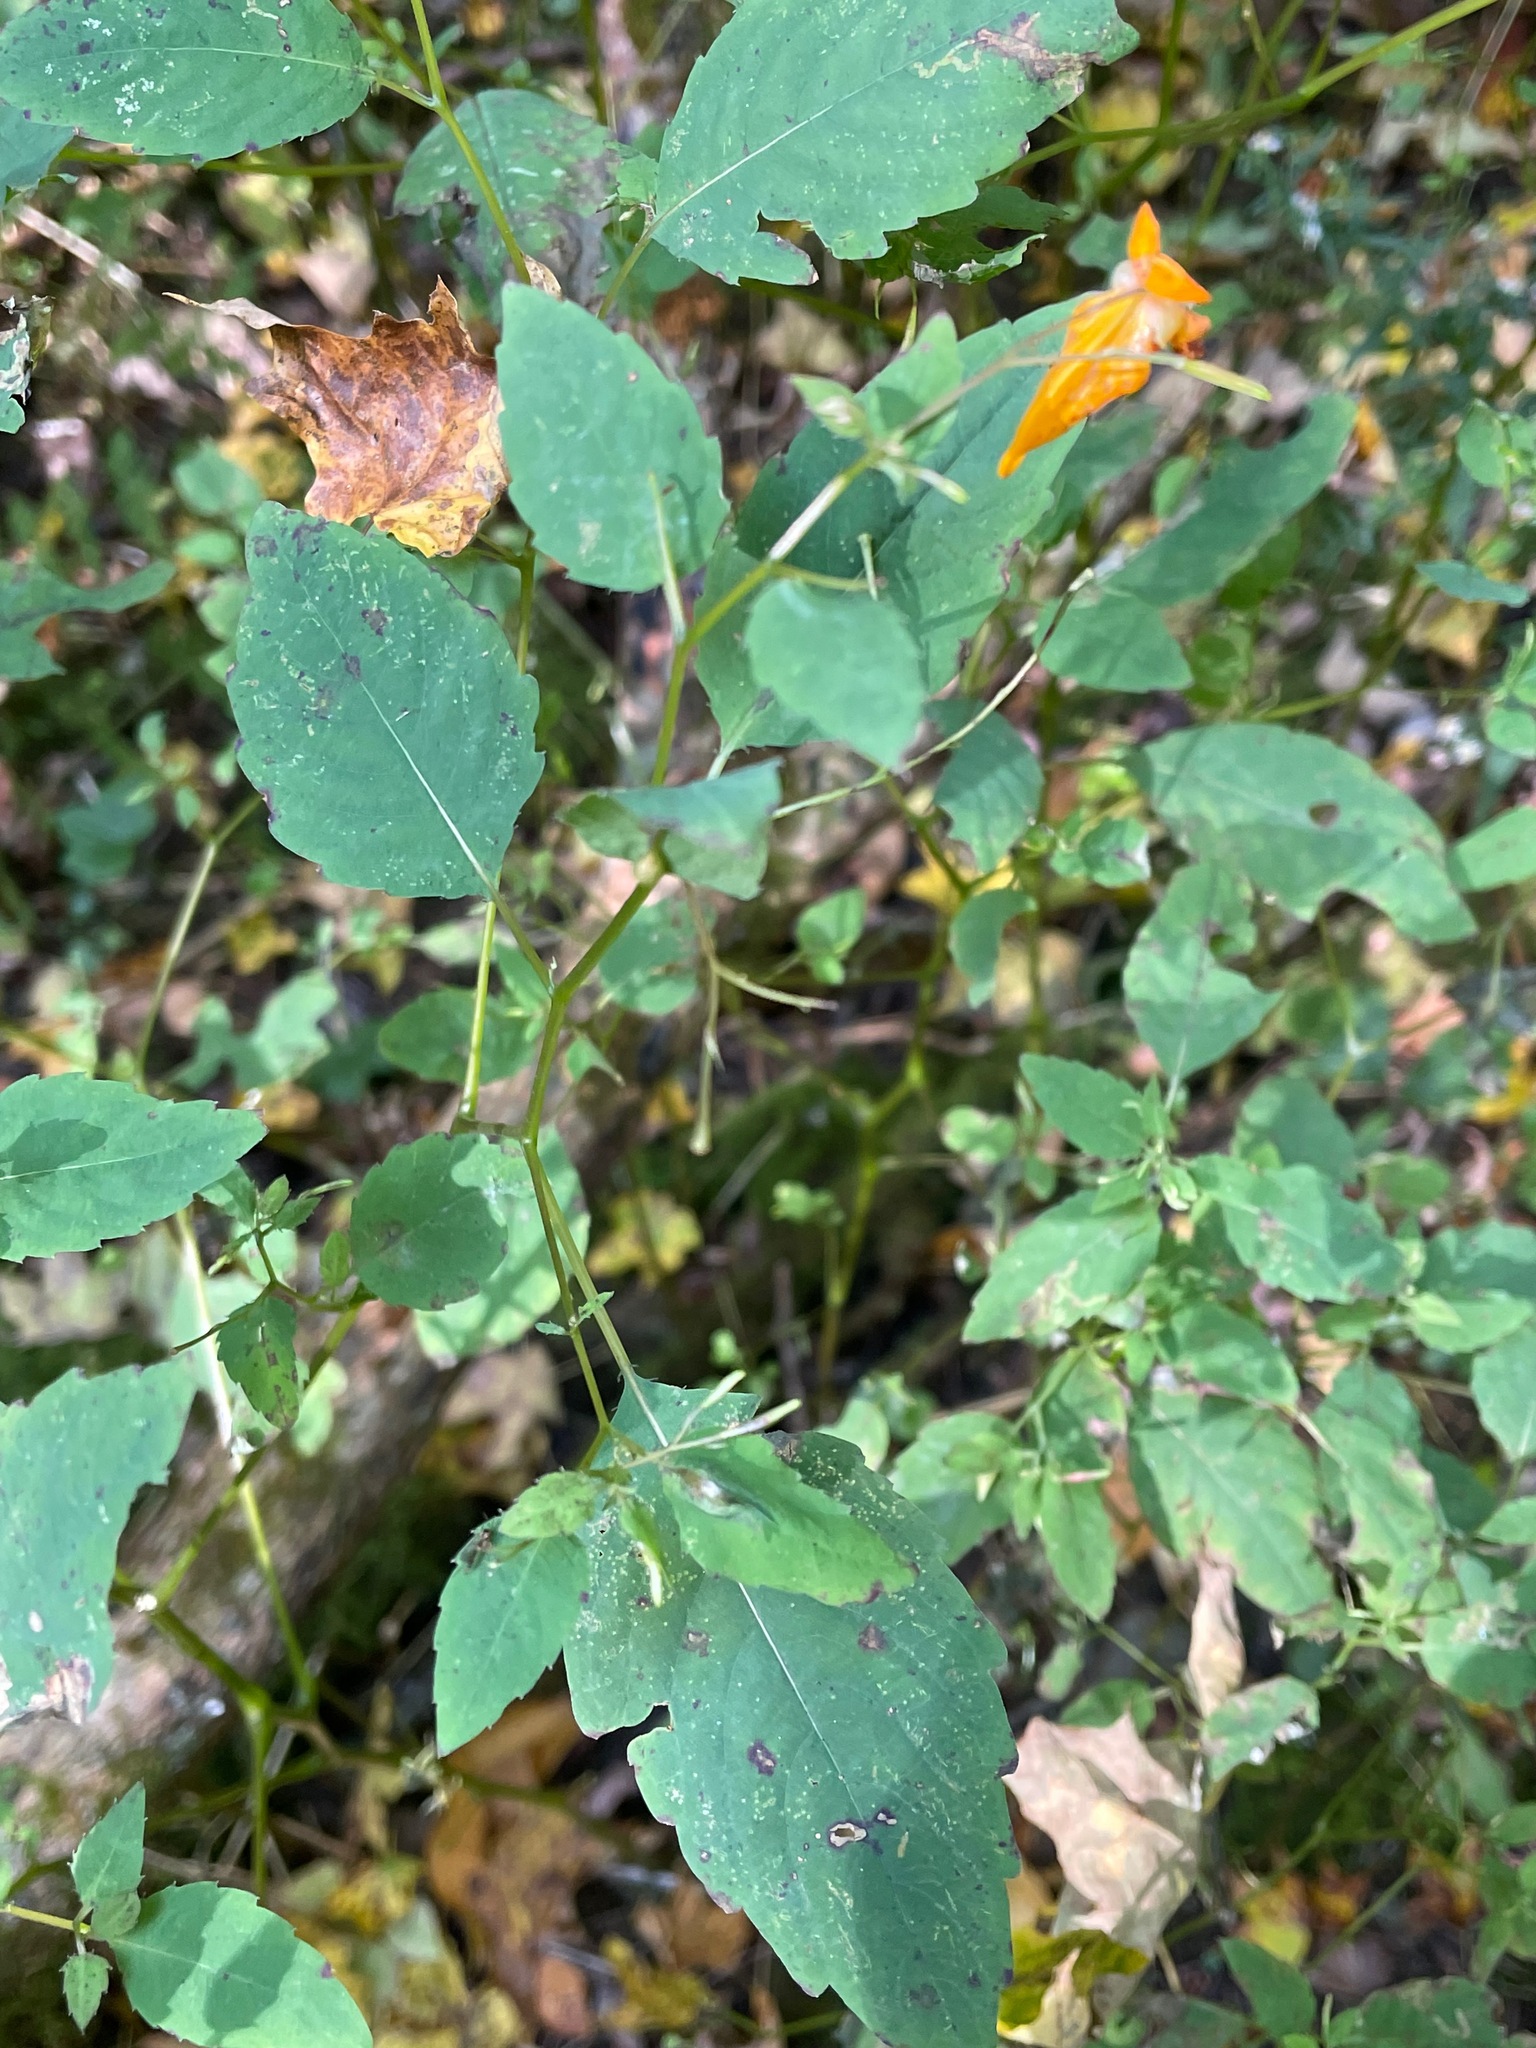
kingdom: Plantae
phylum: Tracheophyta
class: Magnoliopsida
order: Ericales
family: Balsaminaceae
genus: Impatiens
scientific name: Impatiens capensis
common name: Orange balsam
